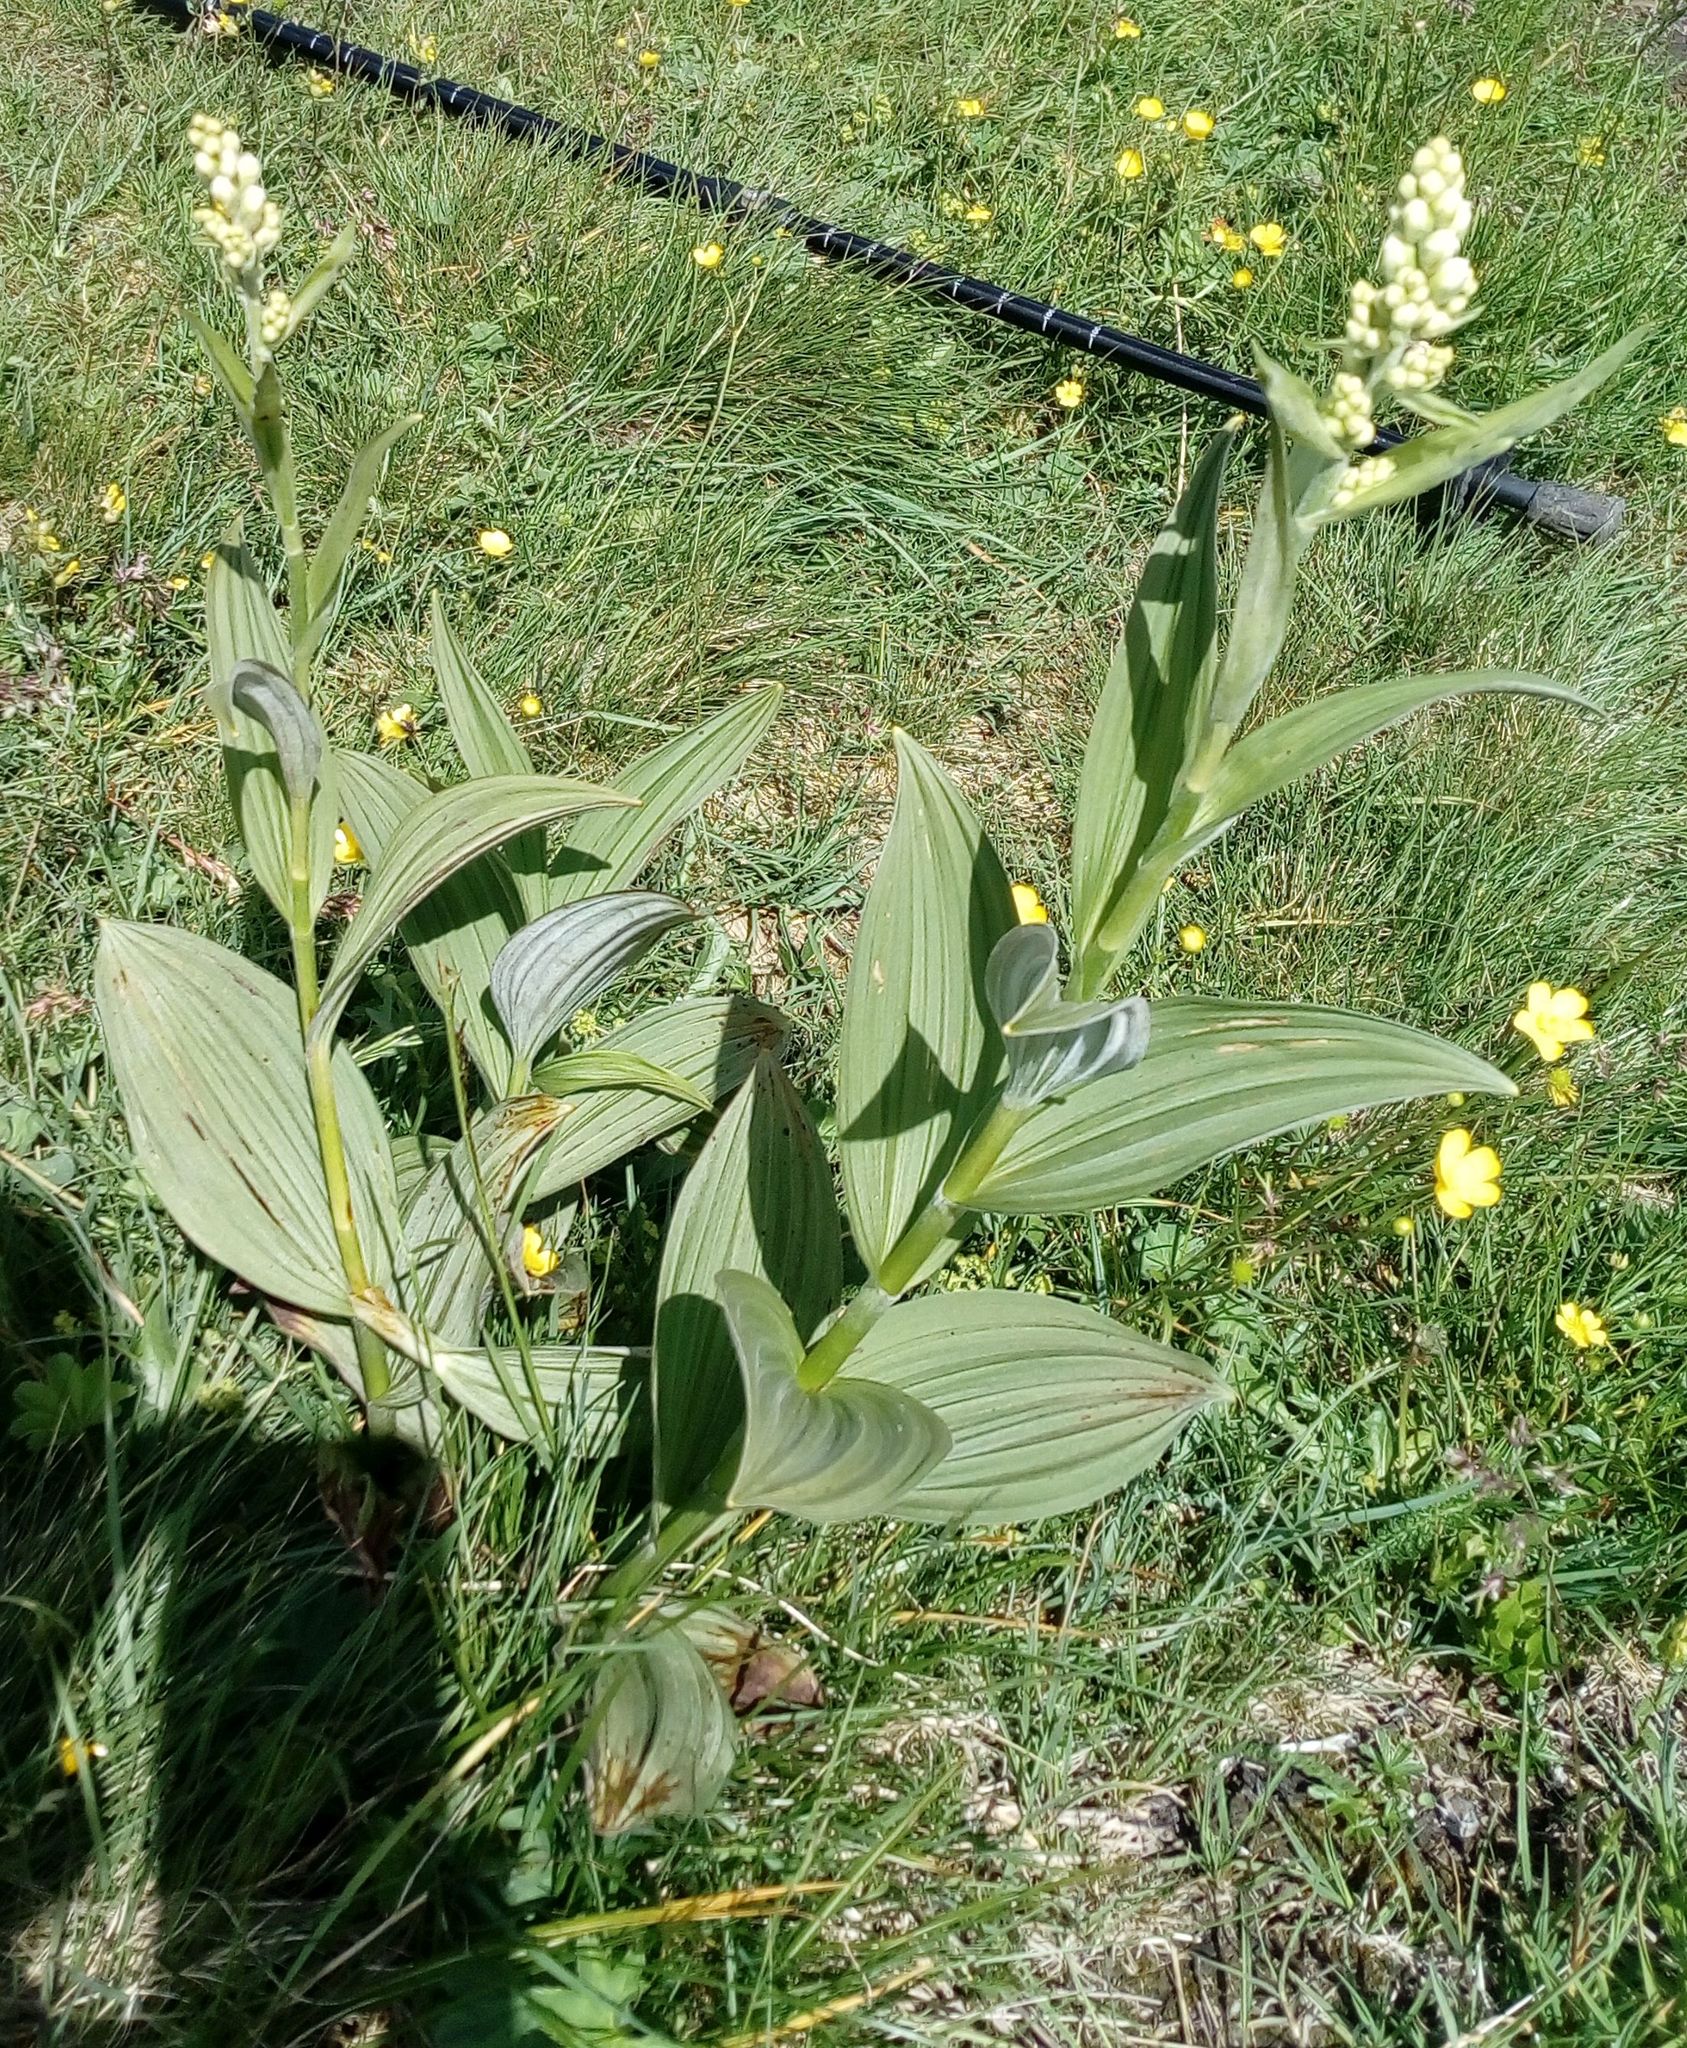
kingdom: Plantae
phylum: Tracheophyta
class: Liliopsida
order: Liliales
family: Melanthiaceae
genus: Veratrum
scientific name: Veratrum album
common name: White veratrum
